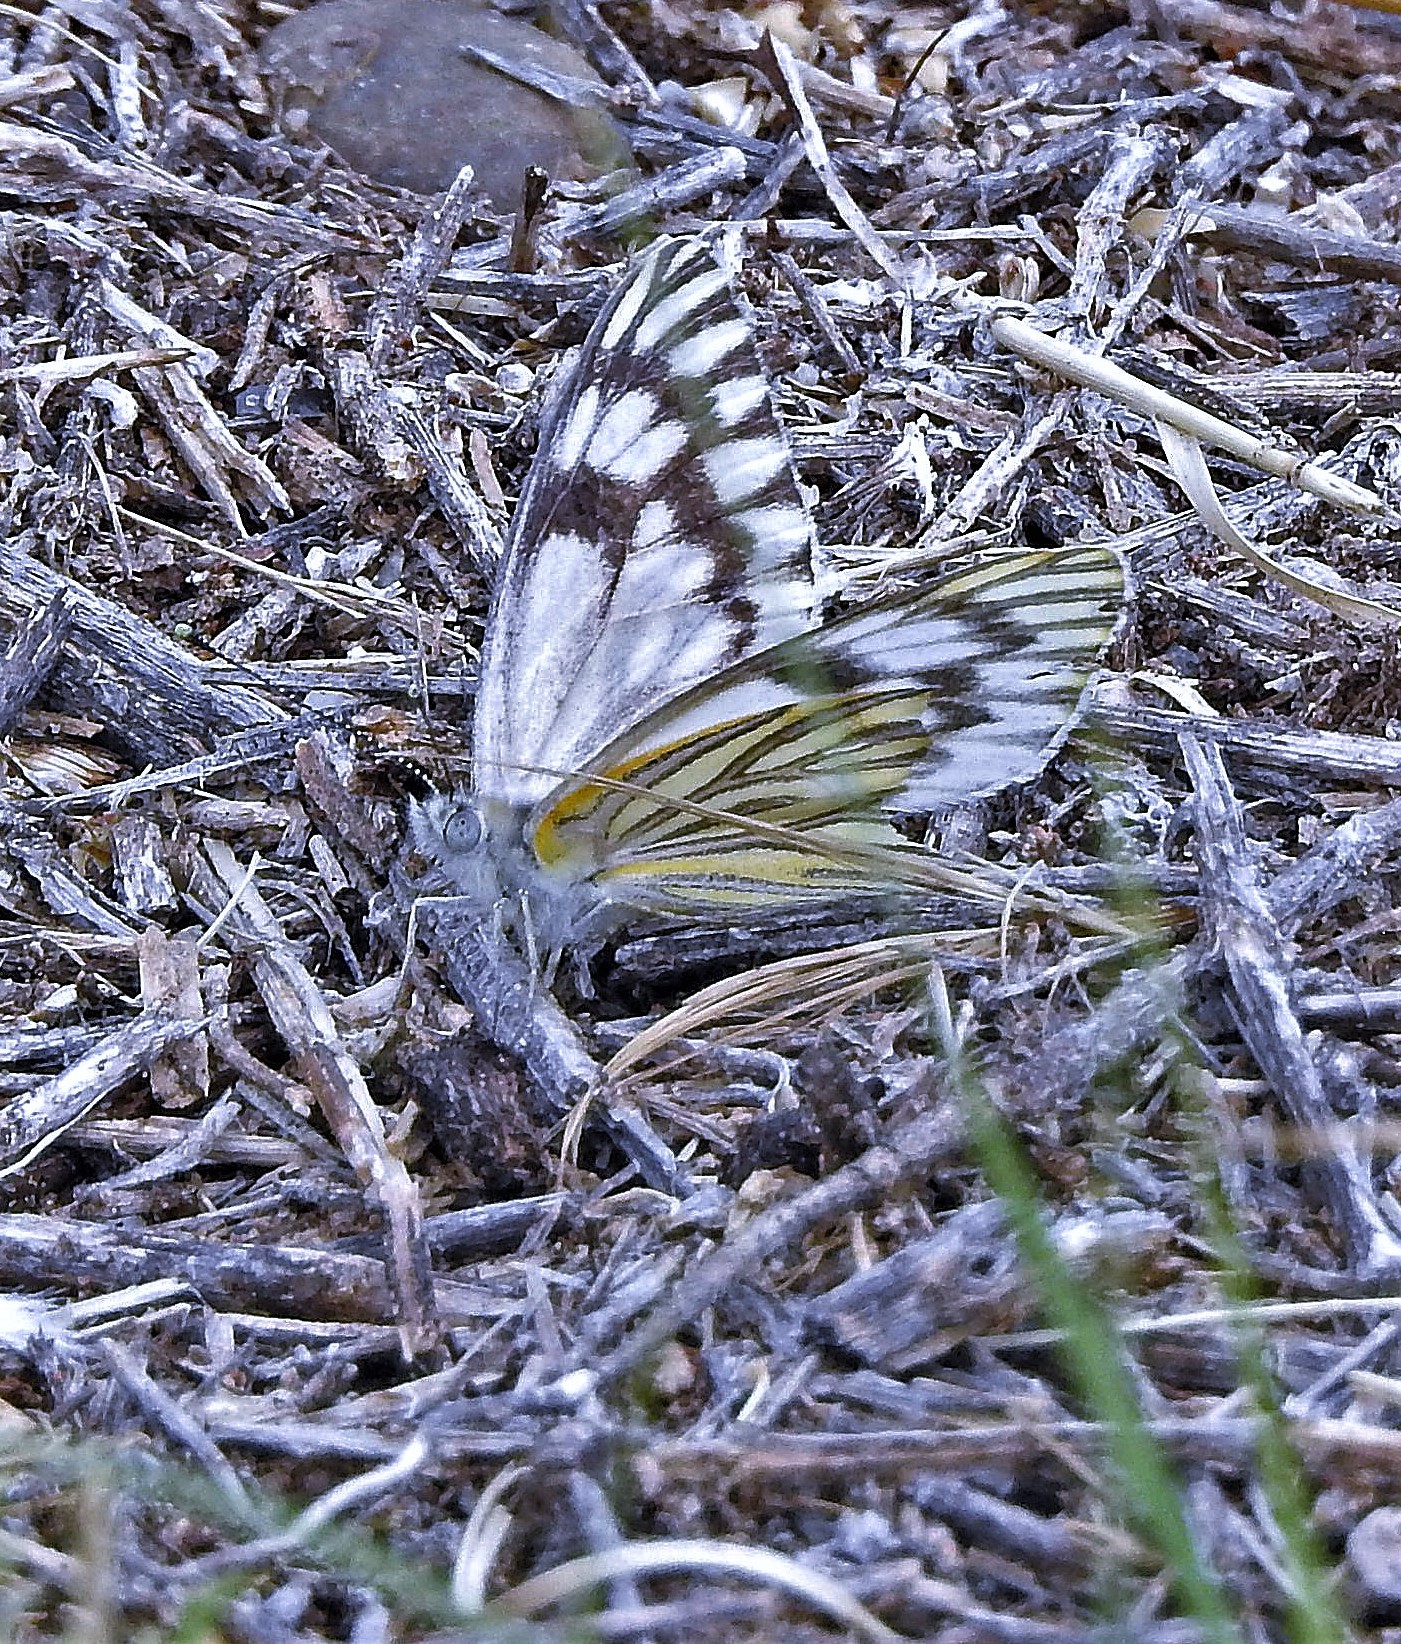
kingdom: Animalia
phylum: Arthropoda
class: Insecta
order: Lepidoptera
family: Pieridae
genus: Tatochila
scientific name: Tatochila mercedis
